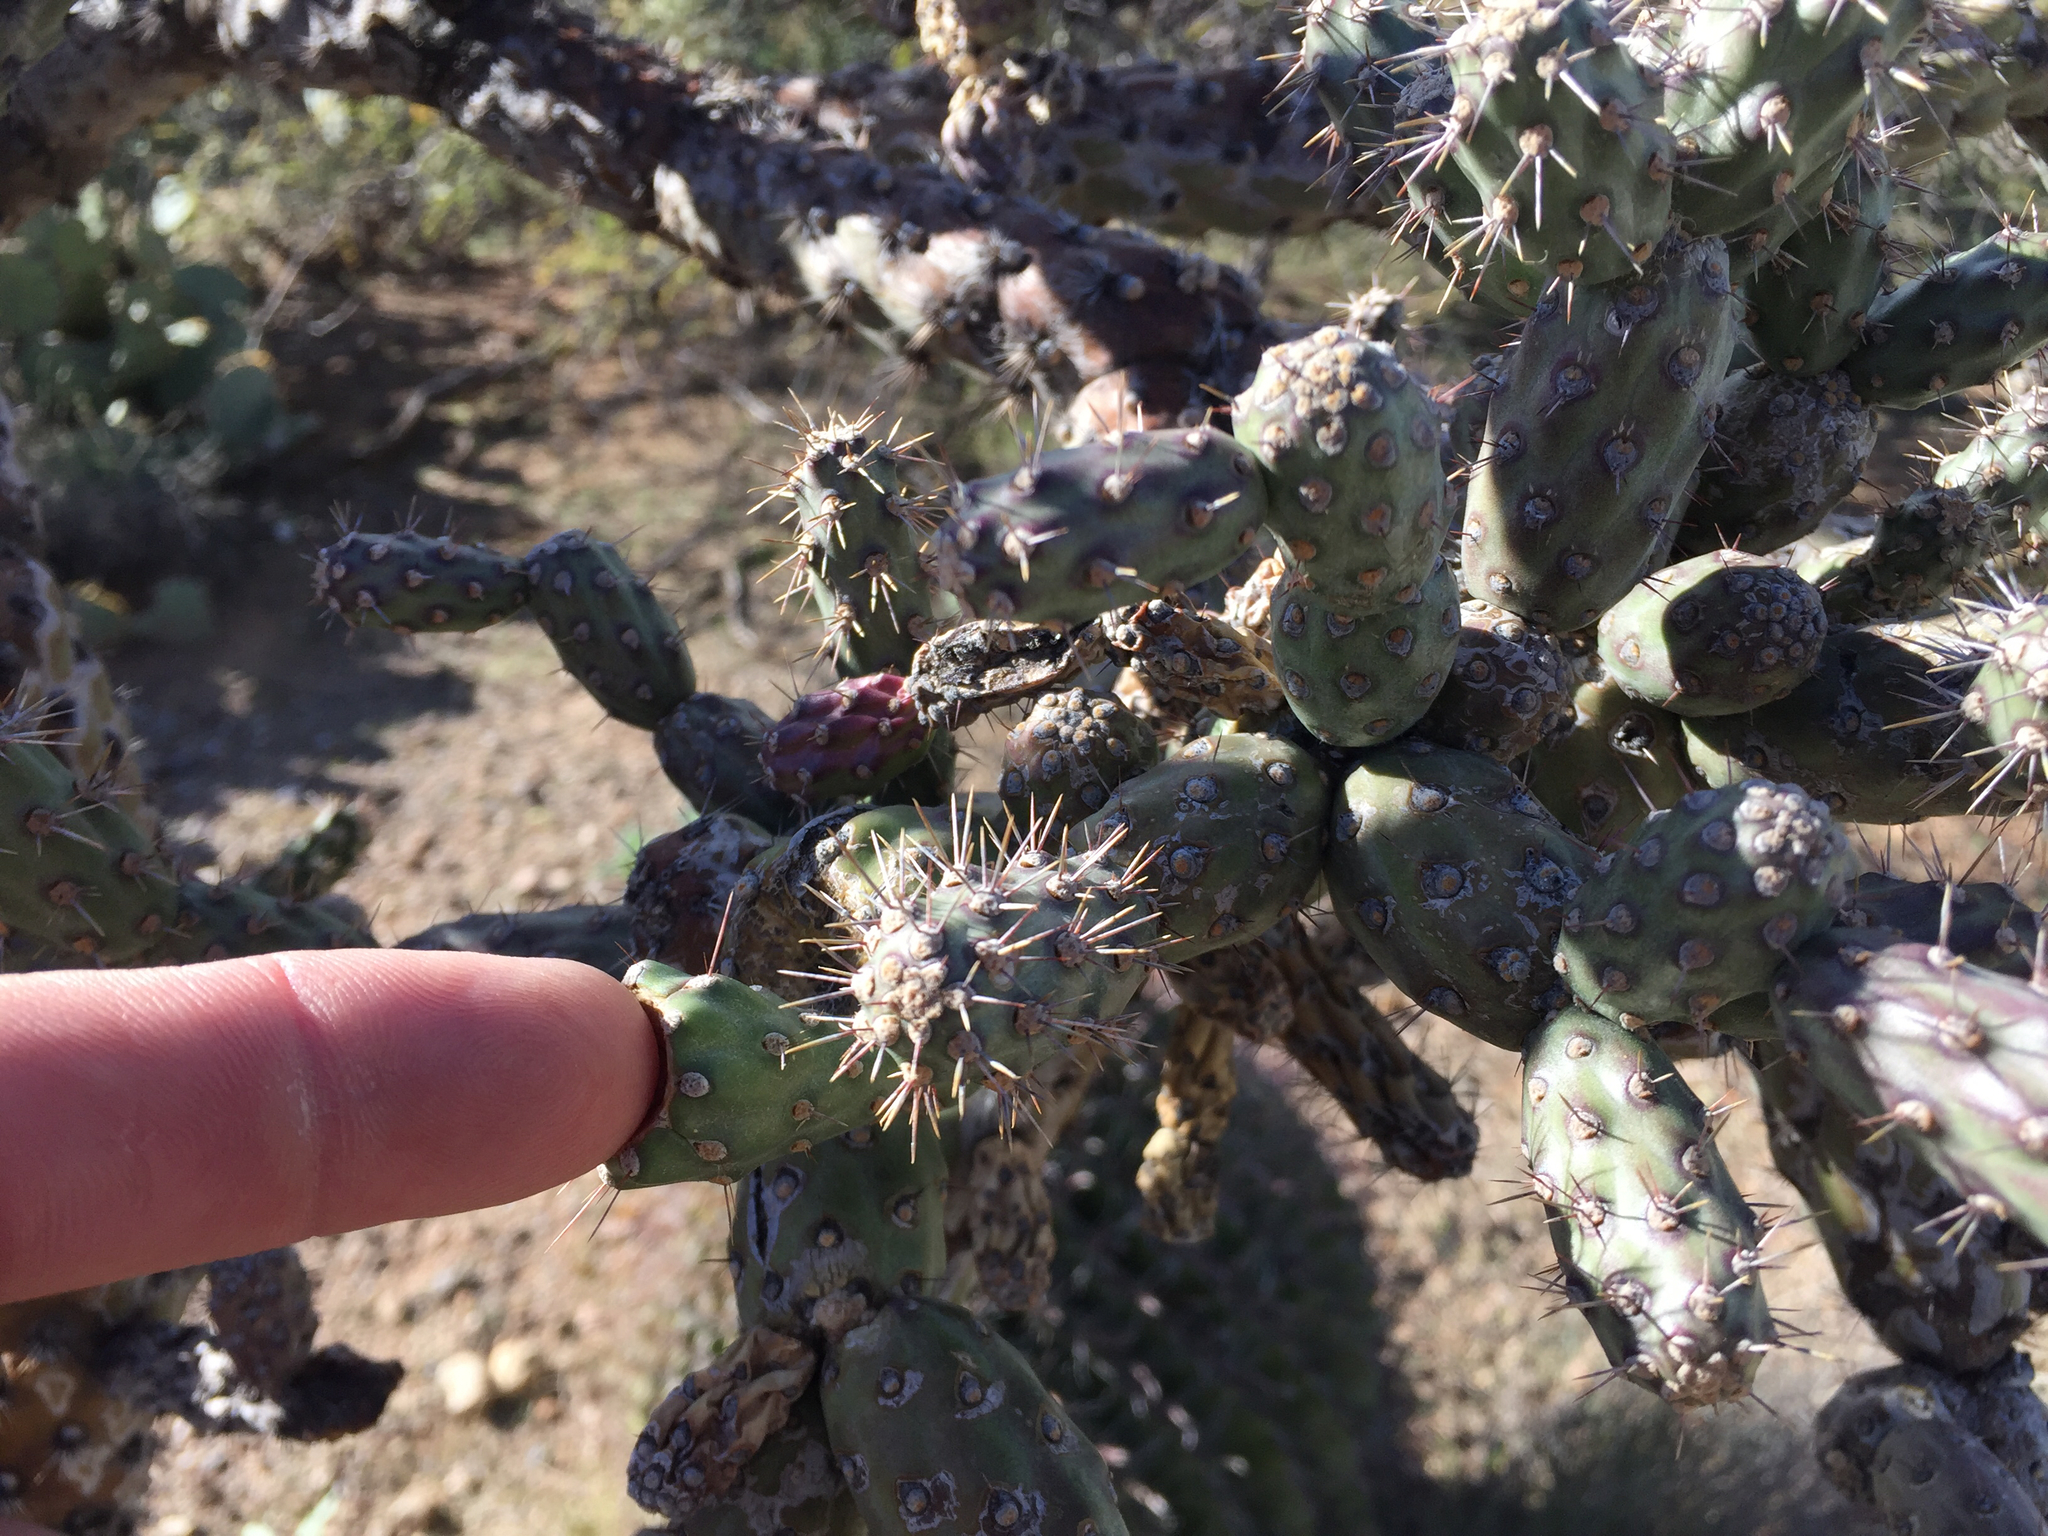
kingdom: Plantae
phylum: Tracheophyta
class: Magnoliopsida
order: Caryophyllales
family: Cactaceae
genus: Cylindropuntia
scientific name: Cylindropuntia thurberi
